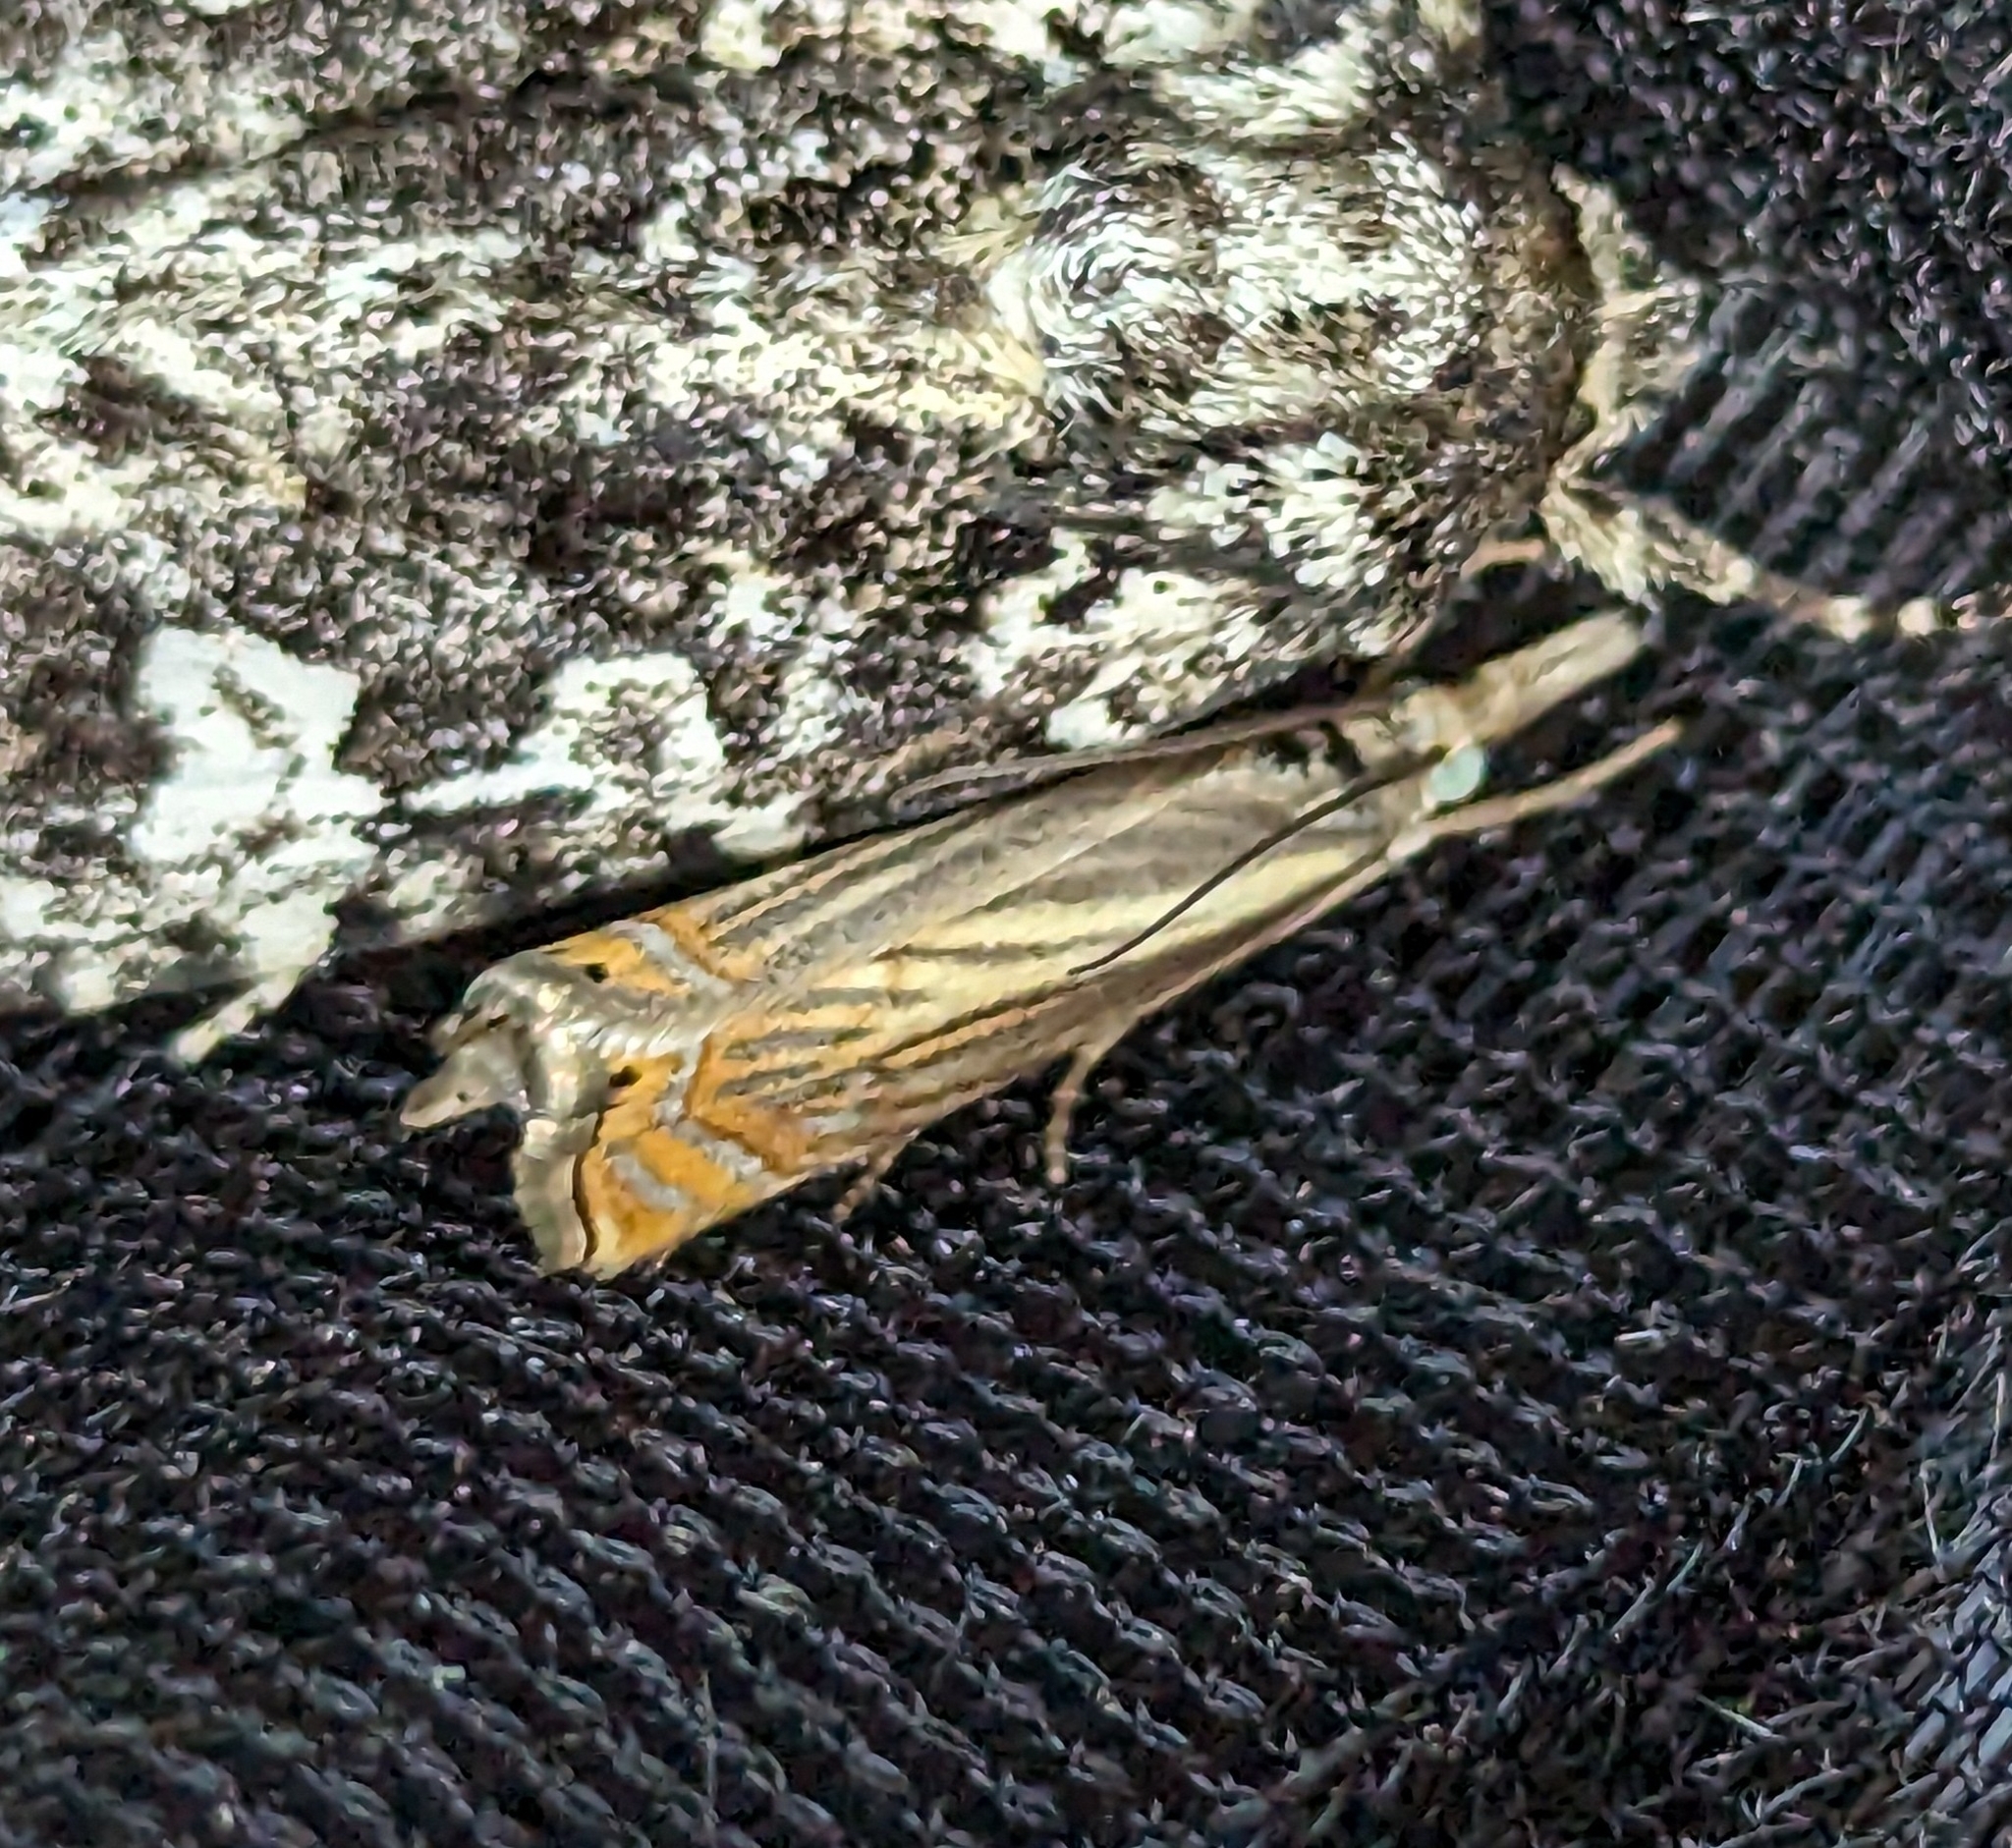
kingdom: Animalia
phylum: Arthropoda
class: Insecta
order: Lepidoptera
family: Crambidae
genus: Chrysoteuchia
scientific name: Chrysoteuchia topiarius
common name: Topiary grass-veneer
